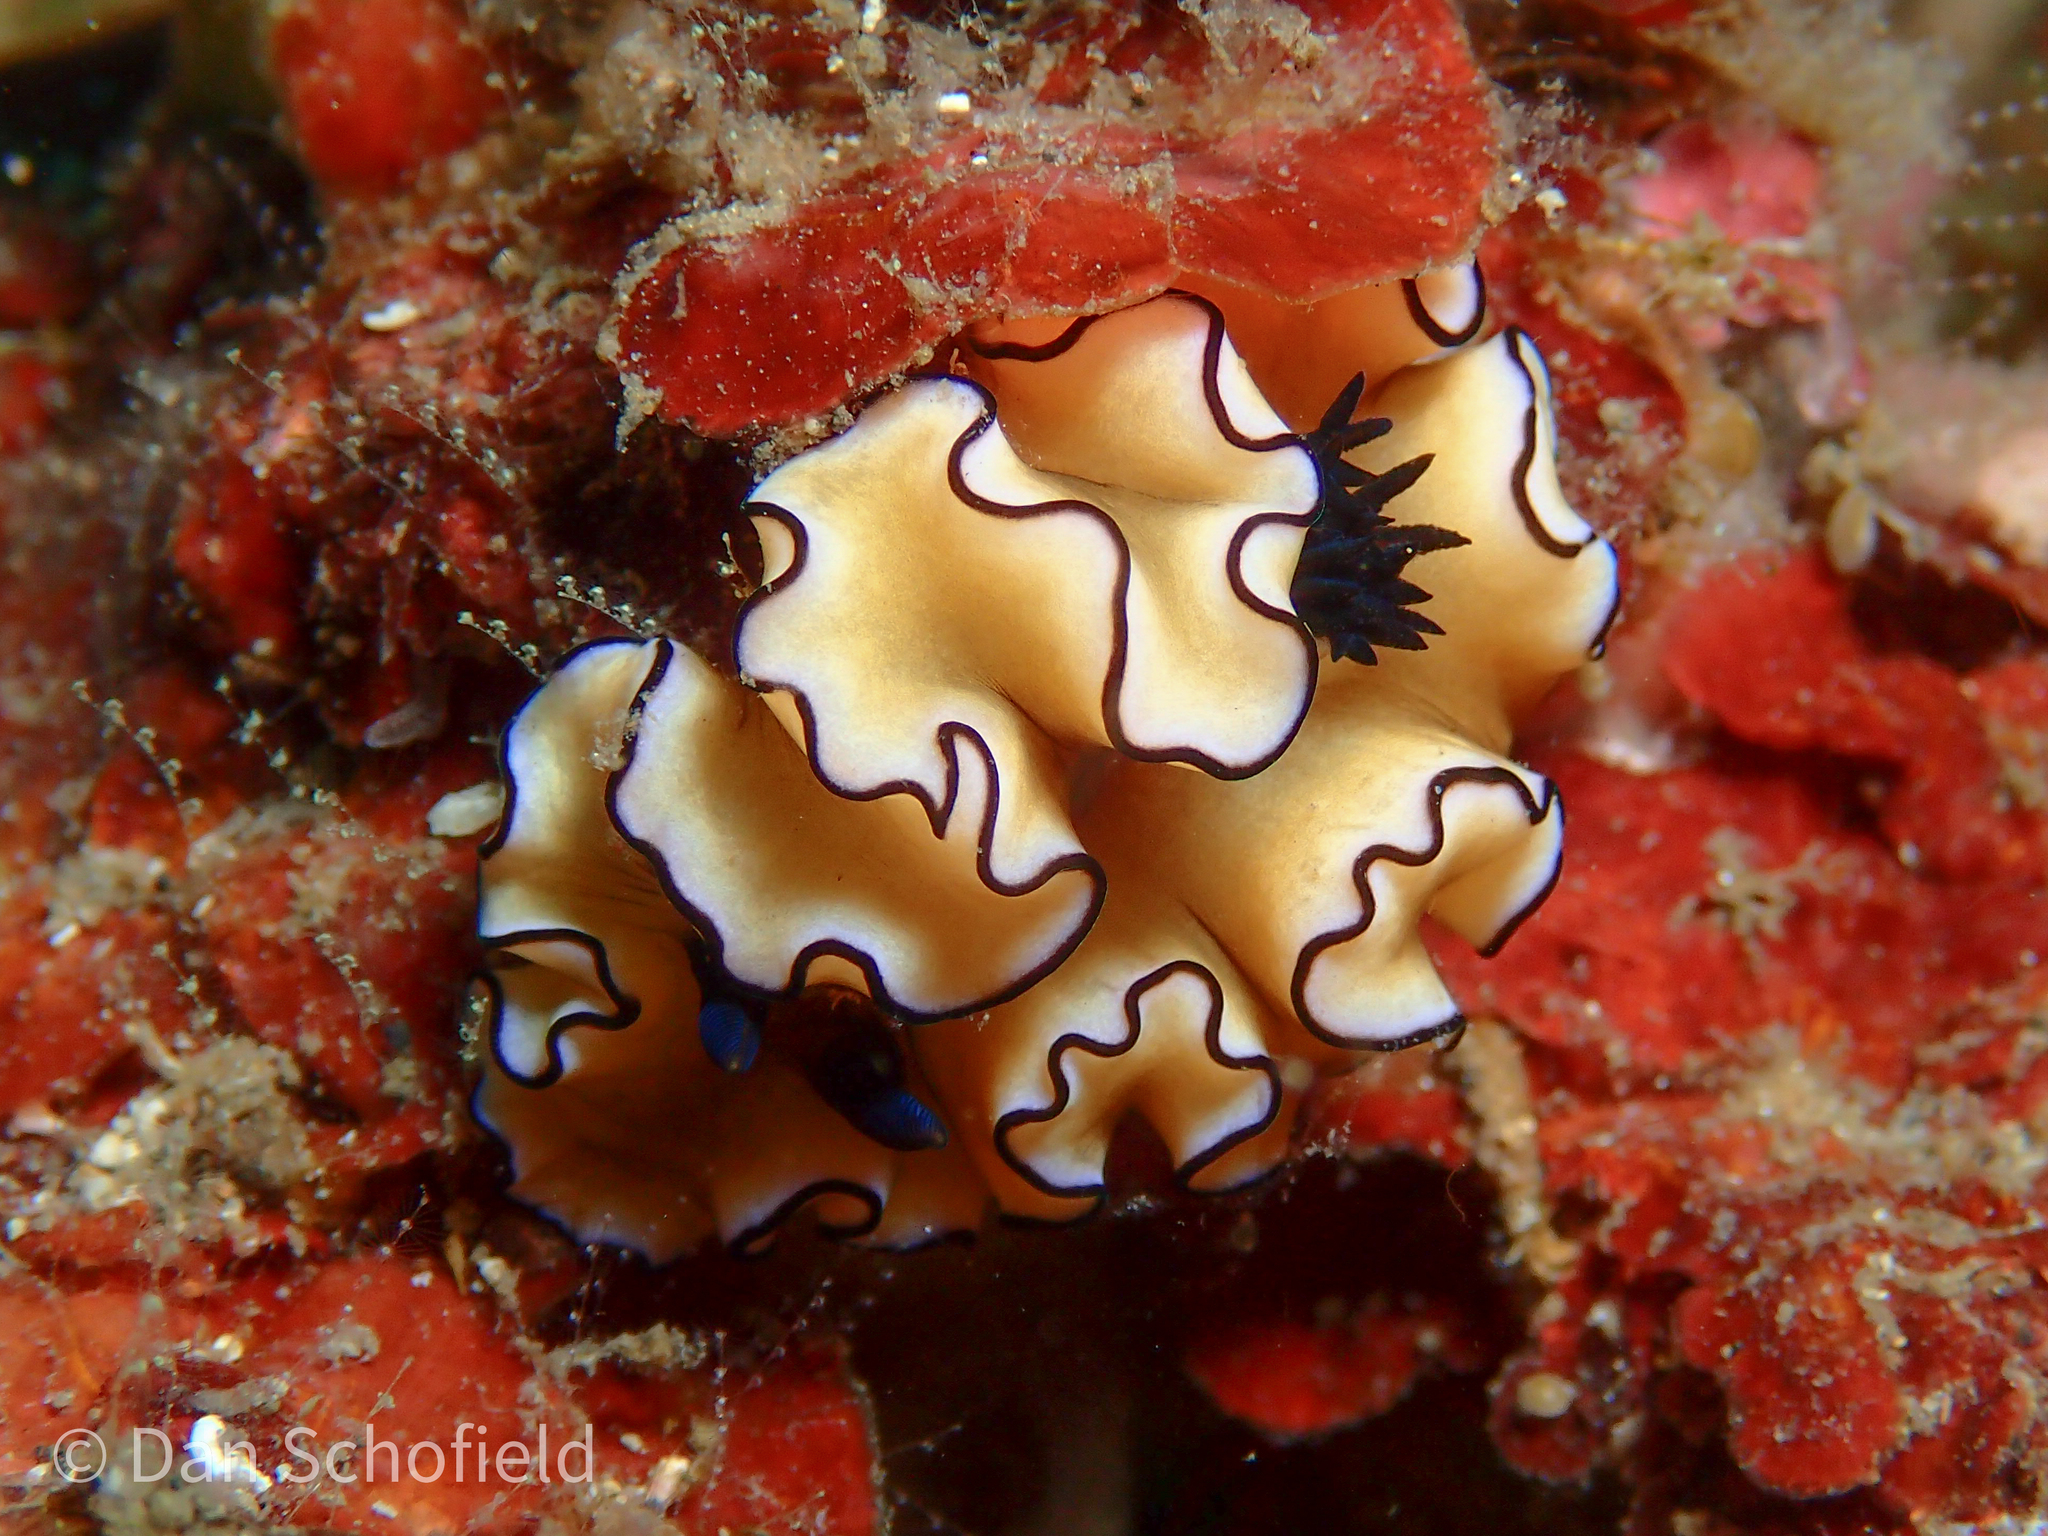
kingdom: Animalia
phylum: Mollusca
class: Gastropoda
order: Nudibranchia
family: Chromodorididae
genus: Doriprismatica
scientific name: Doriprismatica atromarginata
